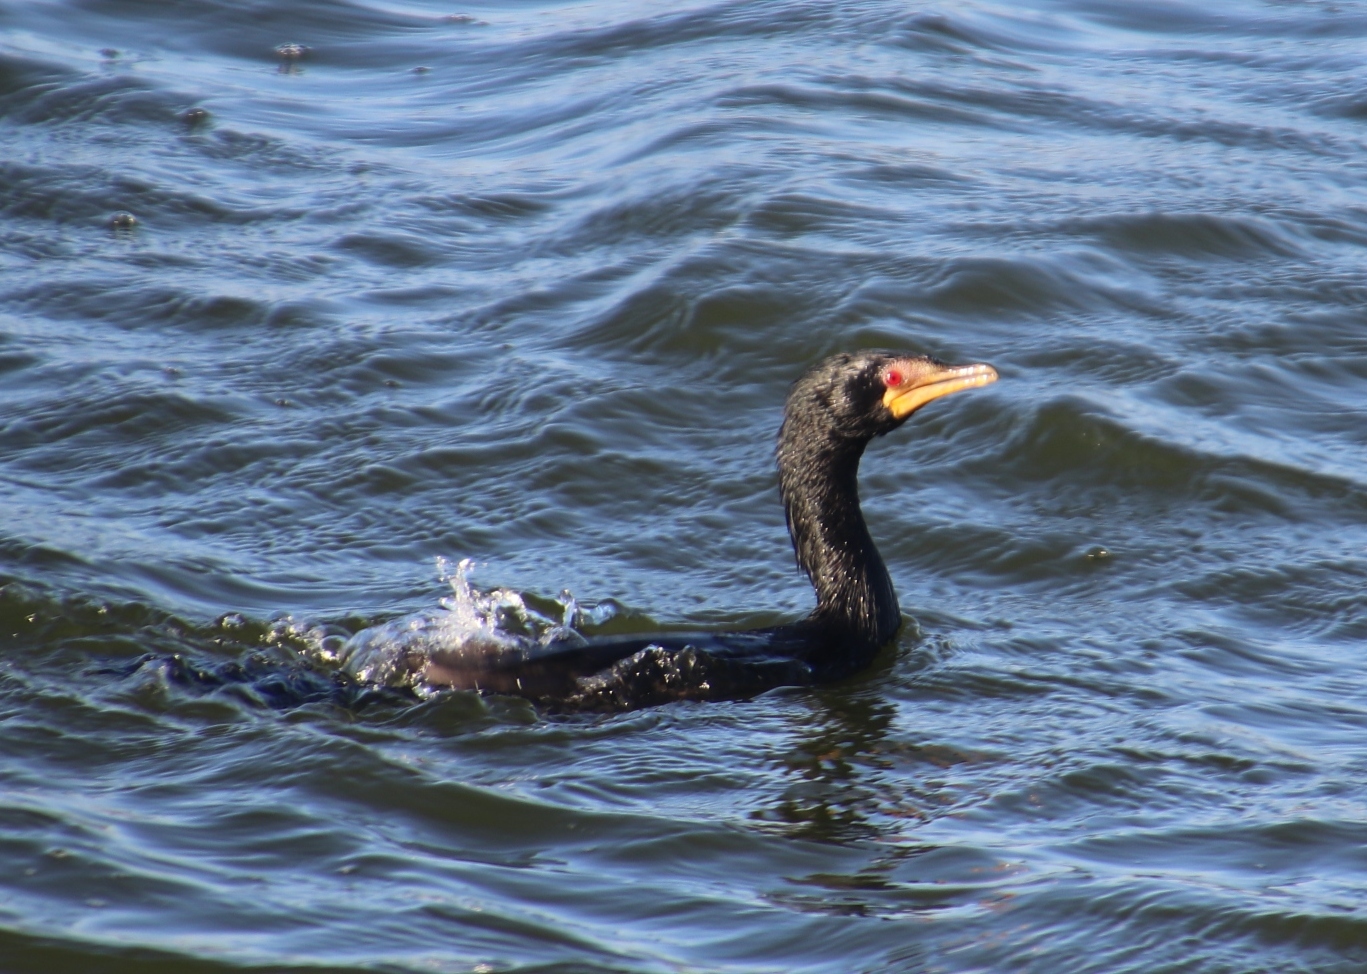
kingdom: Animalia
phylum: Chordata
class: Aves
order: Suliformes
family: Phalacrocoracidae
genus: Microcarbo
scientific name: Microcarbo africanus
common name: Long-tailed cormorant
